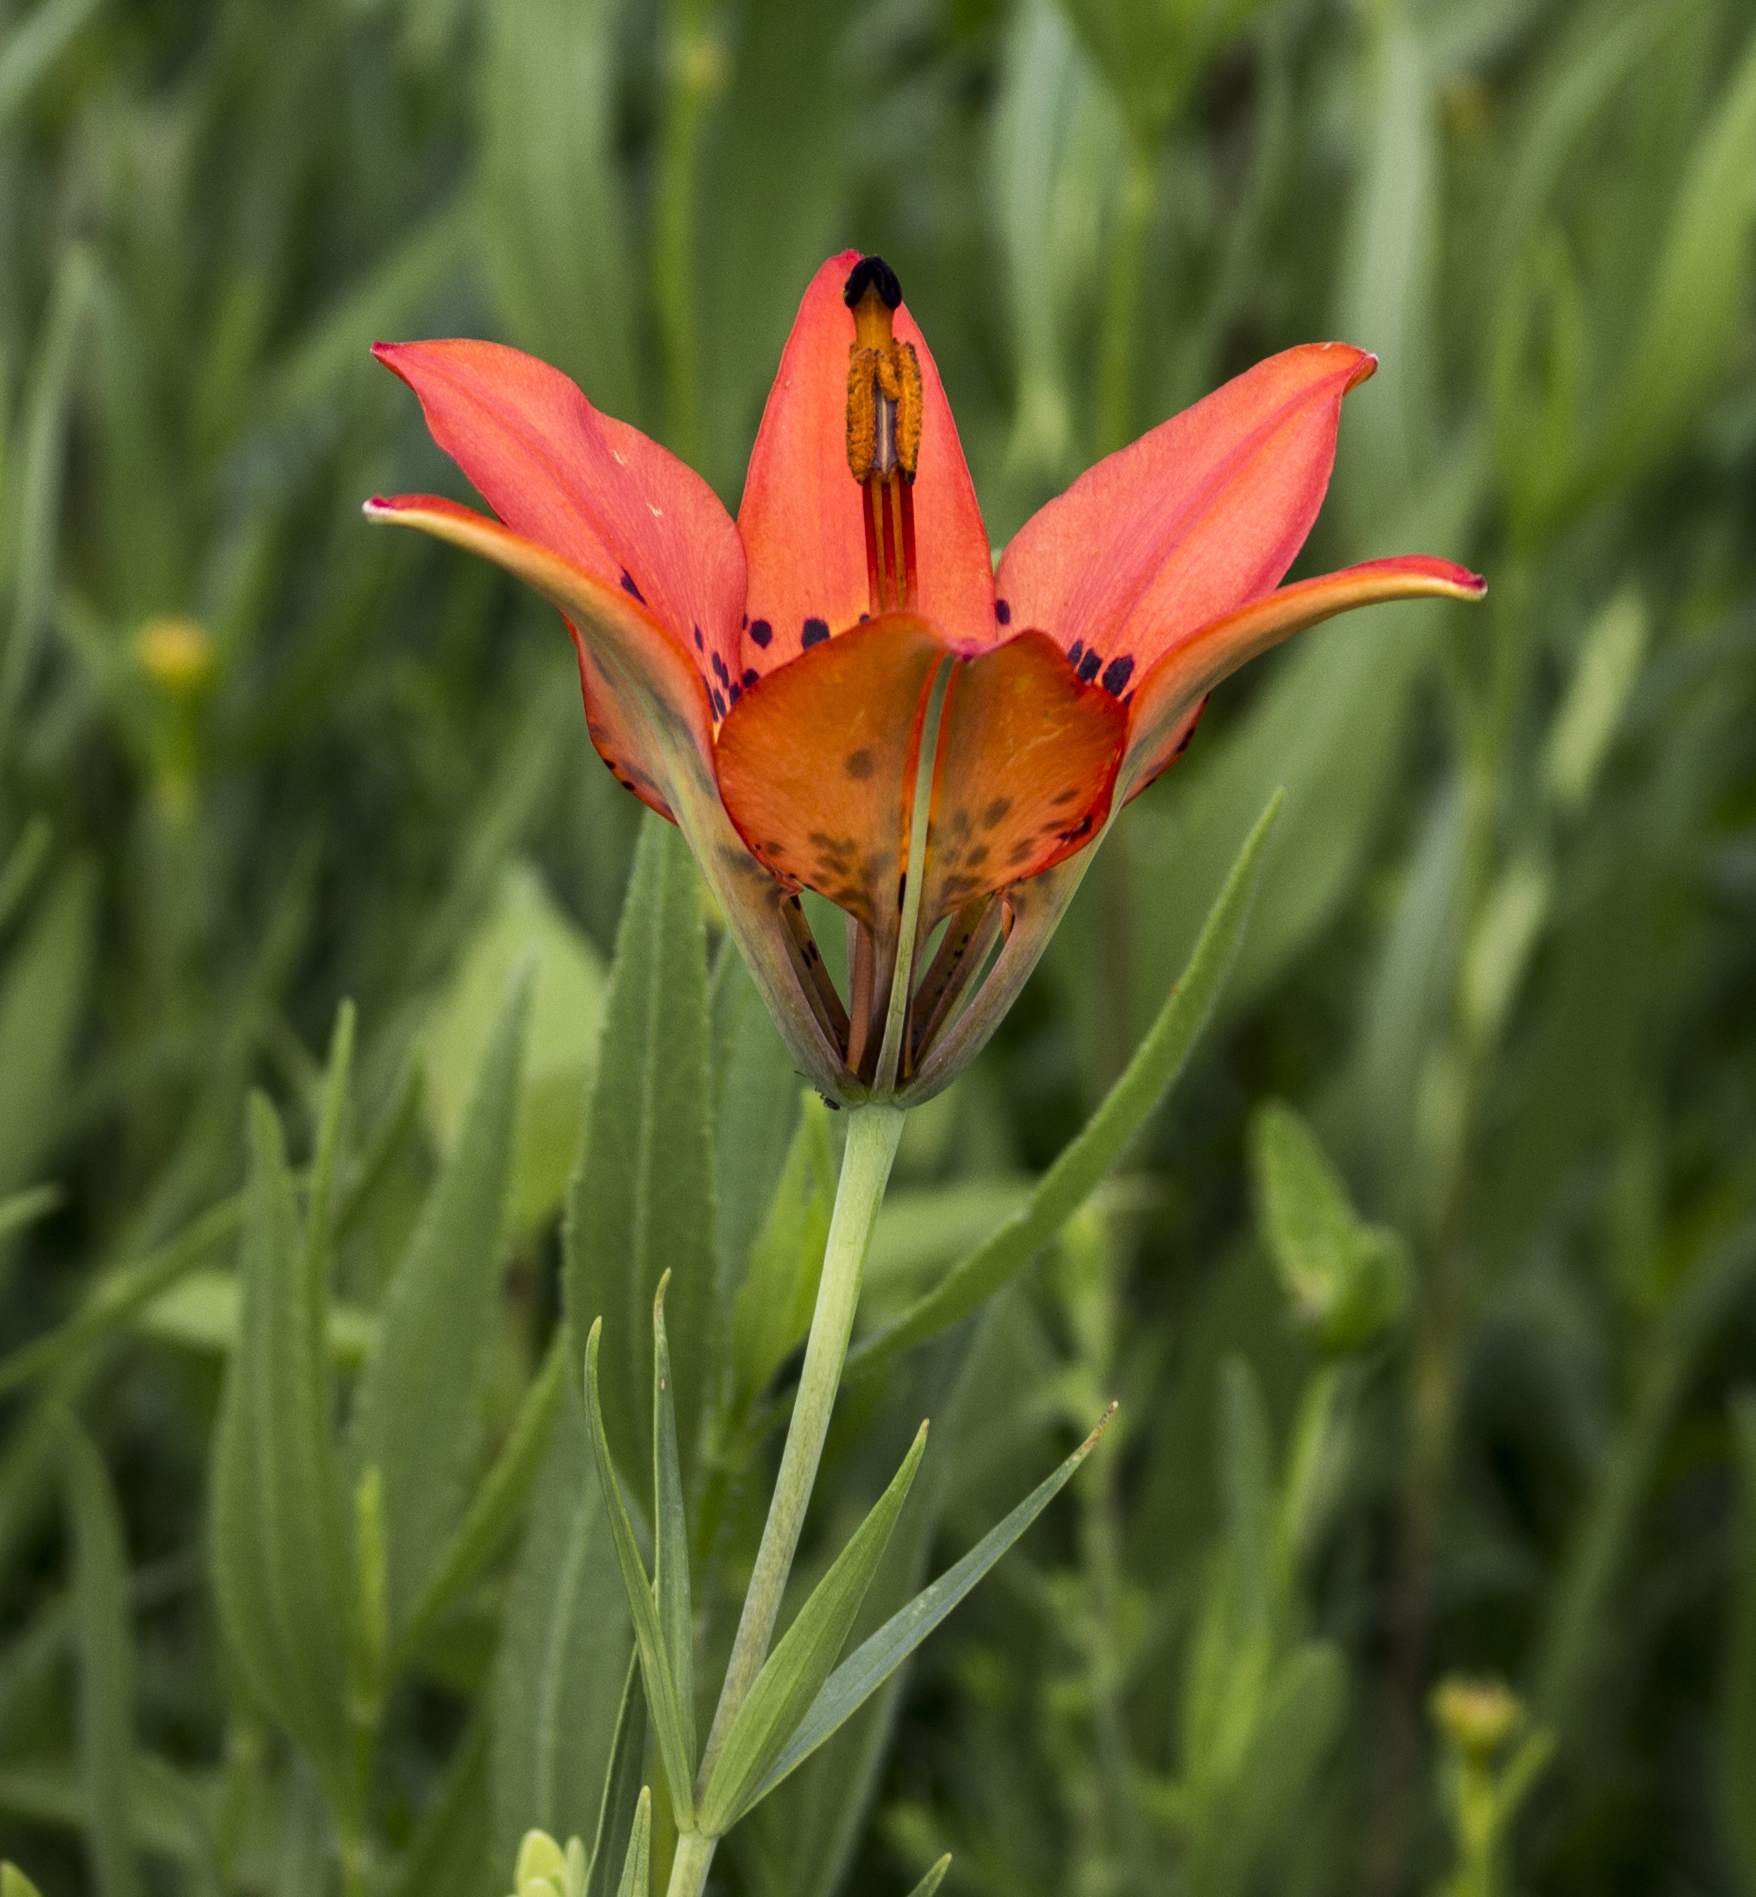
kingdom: Plantae
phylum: Tracheophyta
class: Liliopsida
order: Liliales
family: Liliaceae
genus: Lilium
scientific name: Lilium philadelphicum
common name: Red lily
